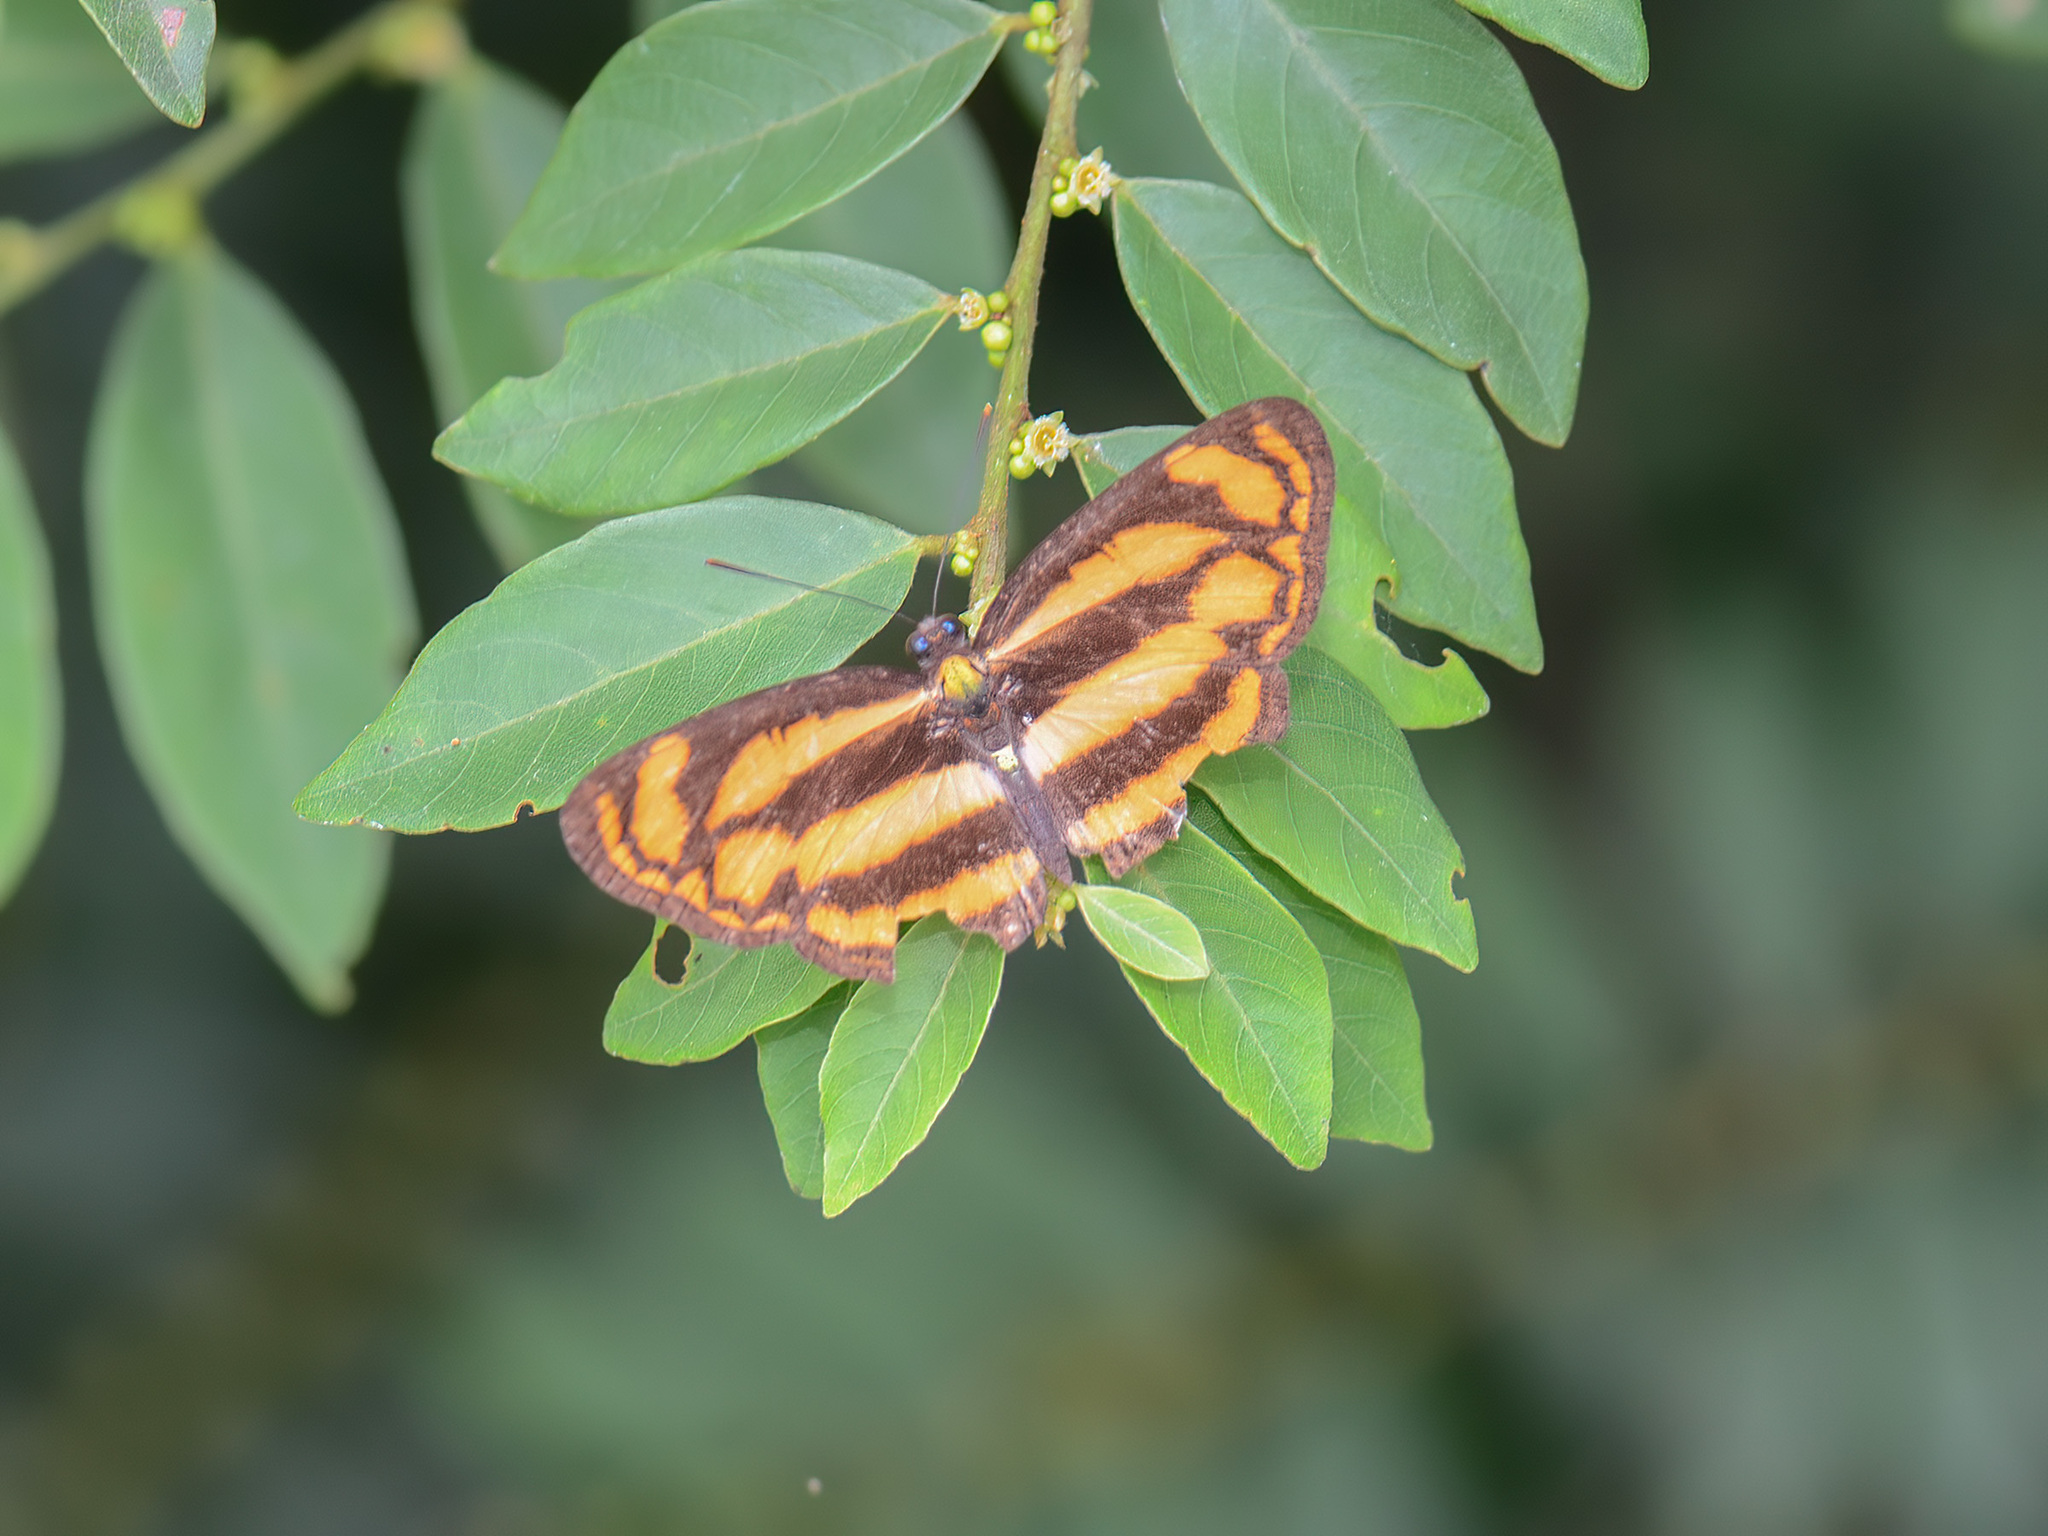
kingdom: Animalia
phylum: Arthropoda
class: Insecta
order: Lepidoptera
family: Nymphalidae
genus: Lasippa
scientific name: Lasippa tiga
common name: Malayan lascar
